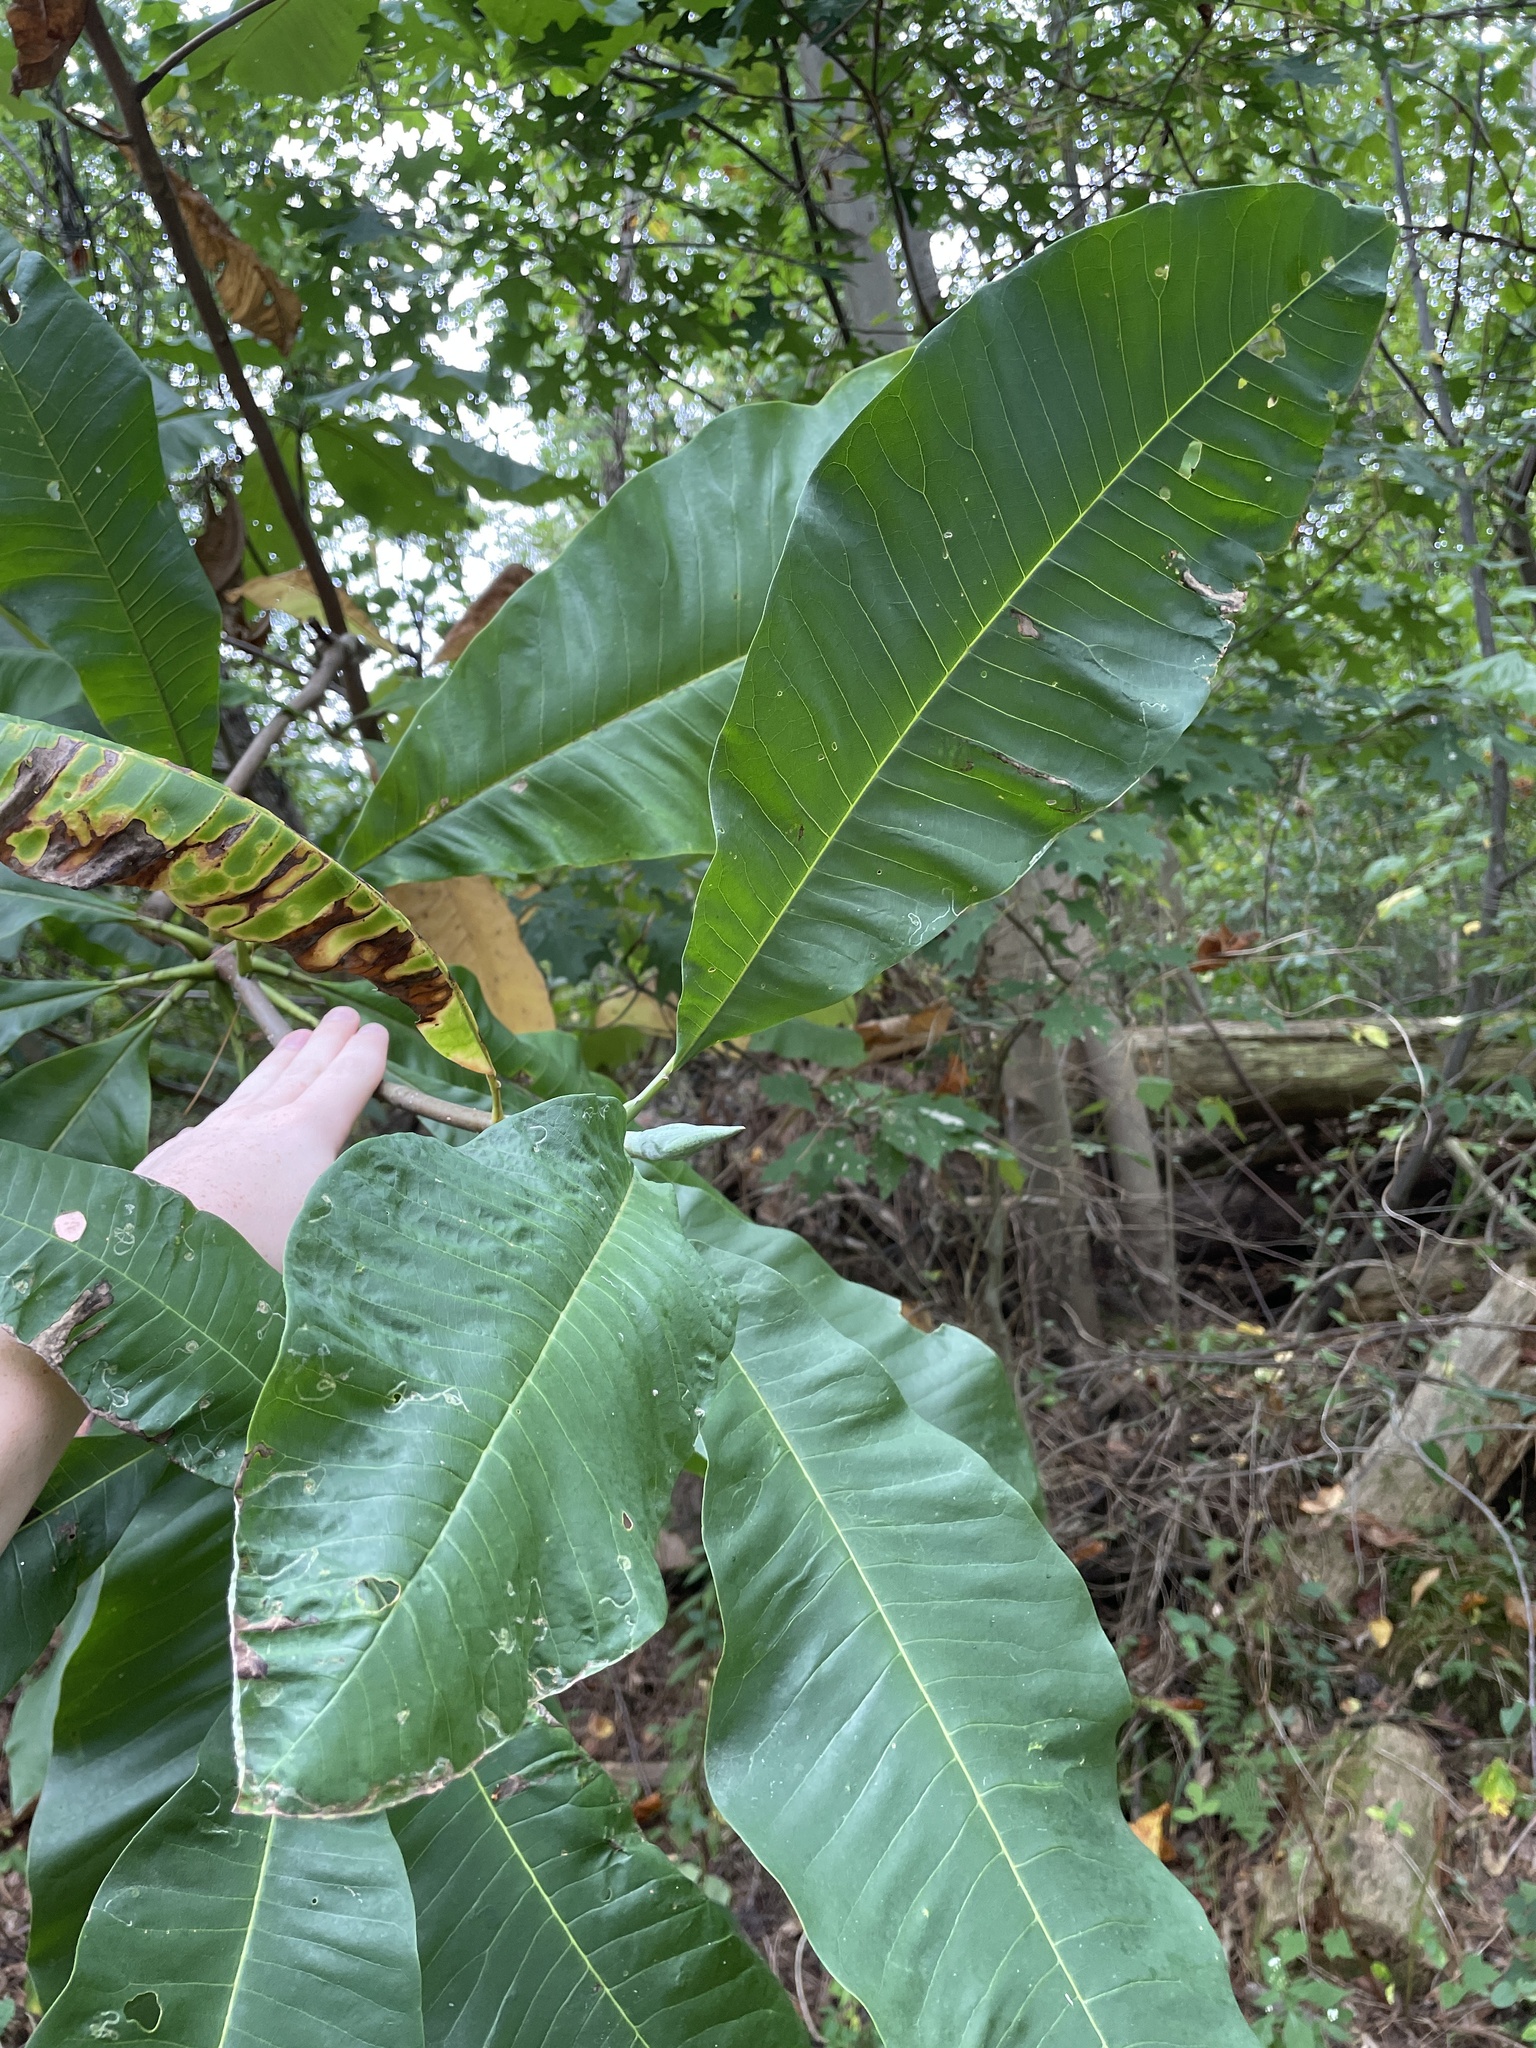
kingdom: Plantae
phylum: Tracheophyta
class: Magnoliopsida
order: Magnoliales
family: Magnoliaceae
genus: Magnolia
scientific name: Magnolia tripetala
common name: Umbrella magnolia
